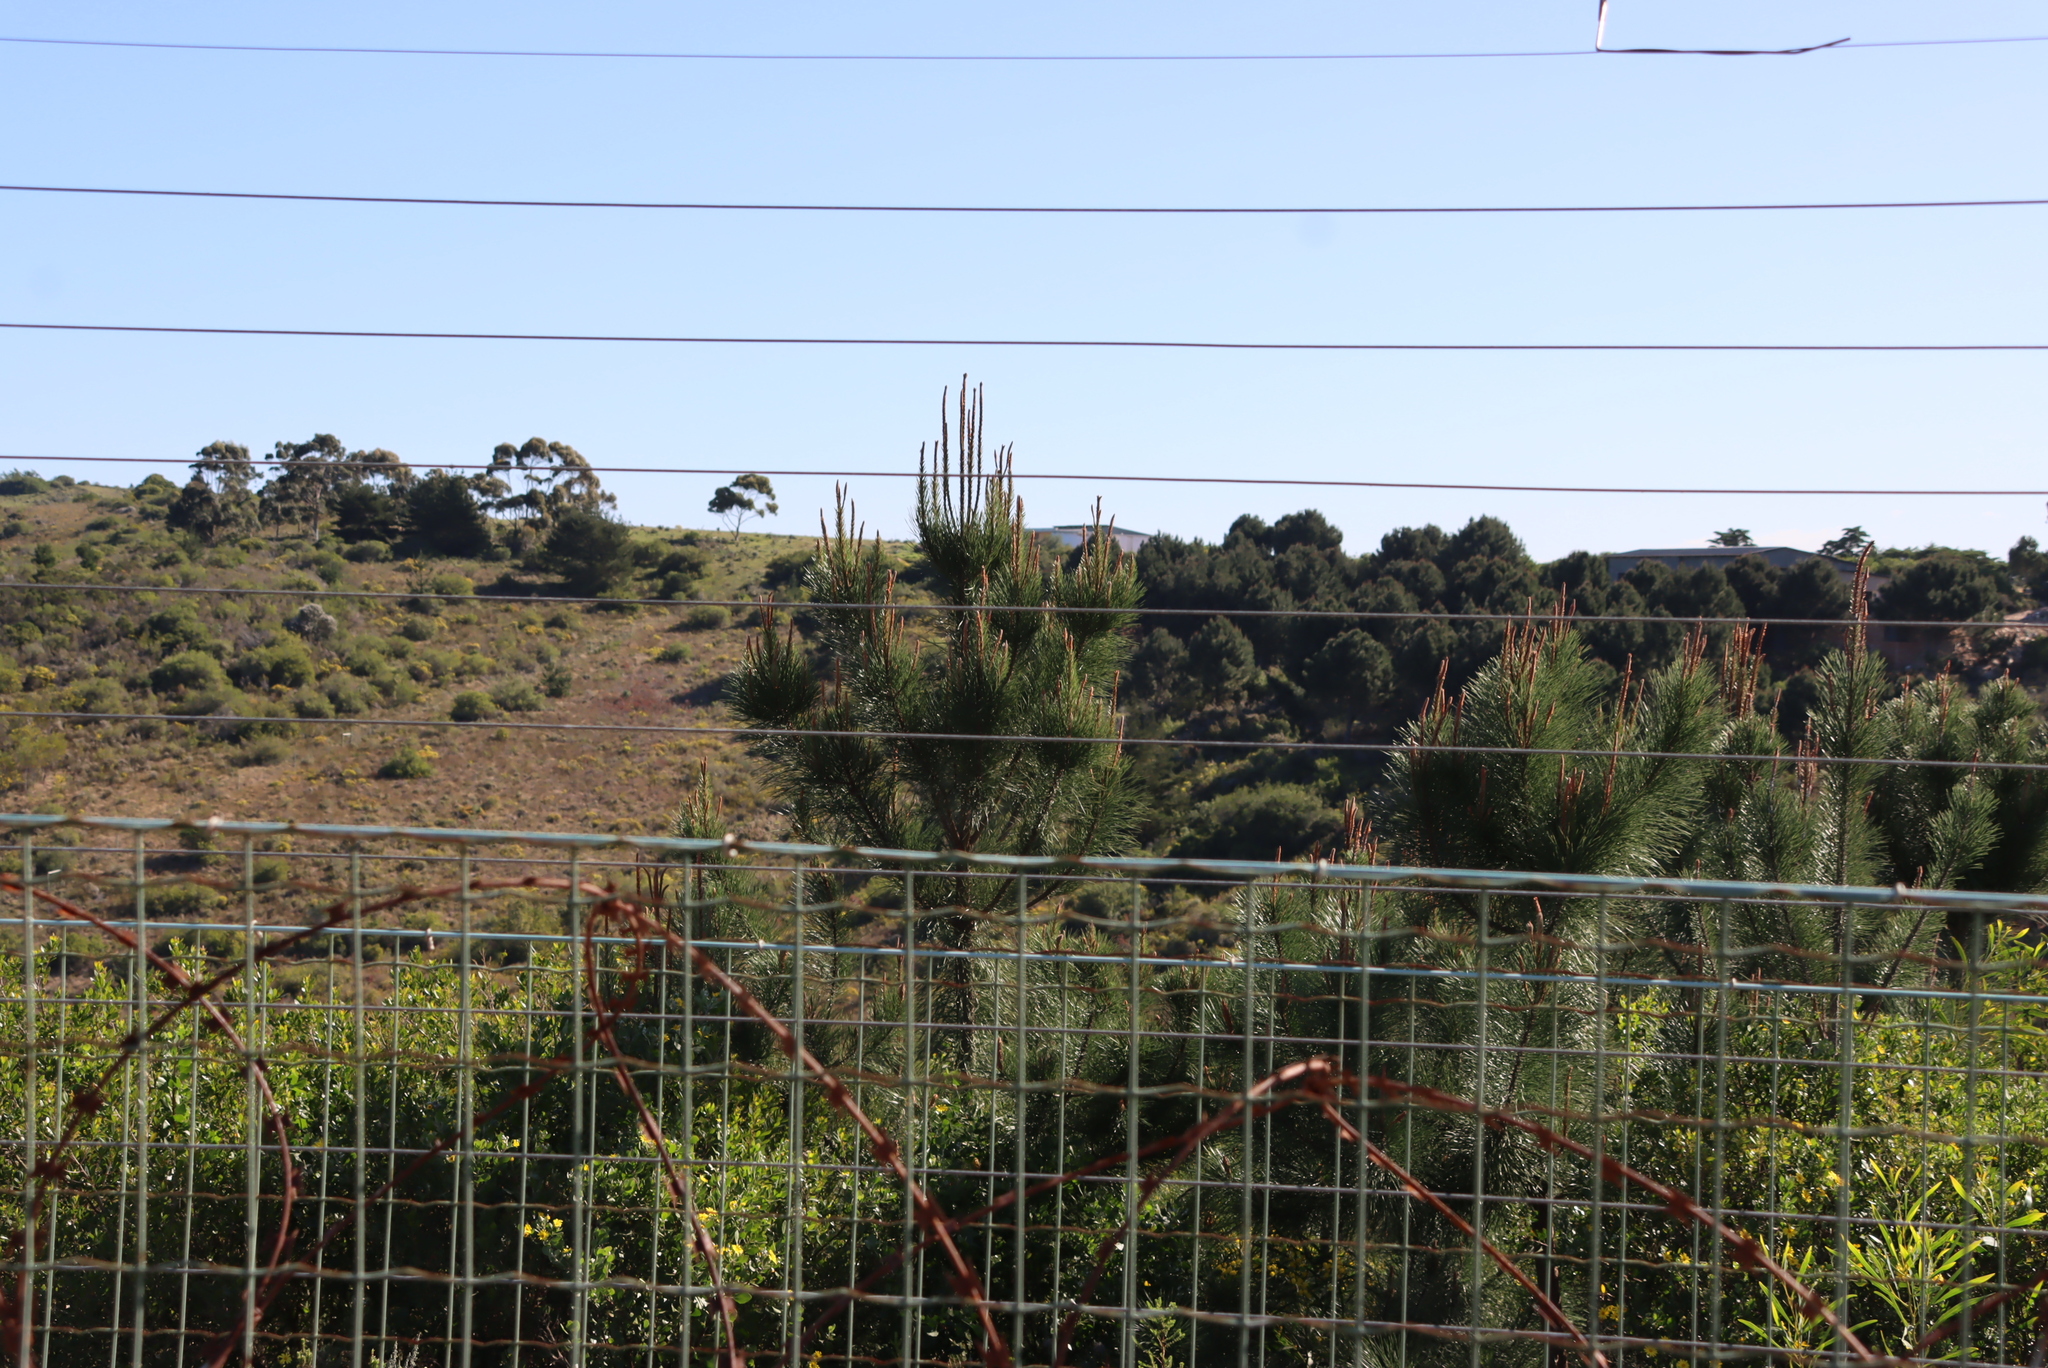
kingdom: Plantae
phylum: Tracheophyta
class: Pinopsida
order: Pinales
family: Pinaceae
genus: Pinus
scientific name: Pinus radiata
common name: Monterey pine
